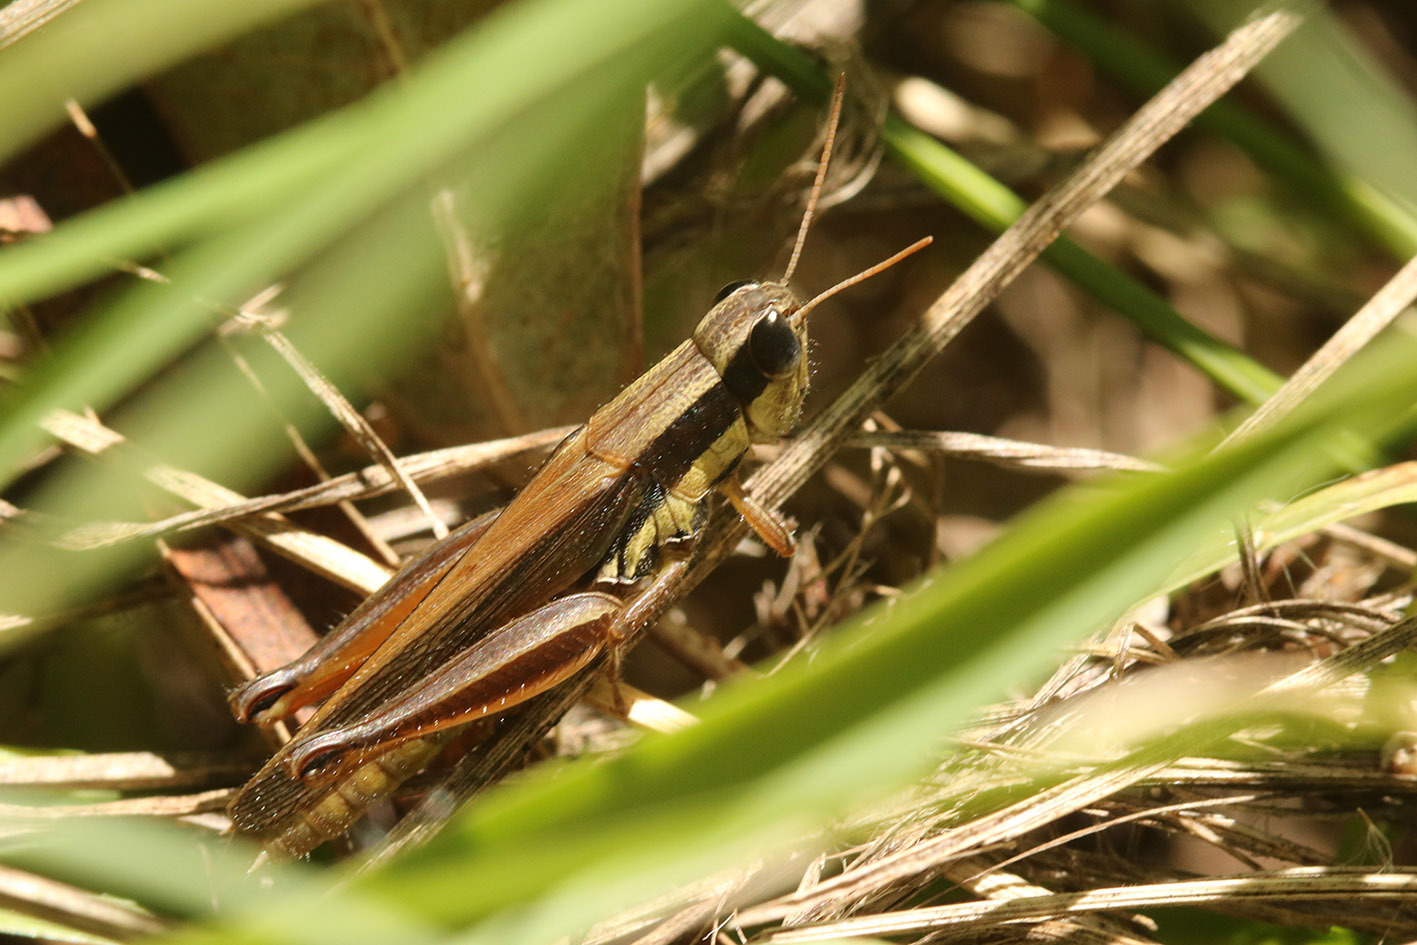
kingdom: Animalia
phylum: Arthropoda
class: Insecta
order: Orthoptera
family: Acrididae
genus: Scotussa
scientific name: Scotussa lemniscata
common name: Slender orange-legged grasshopper
